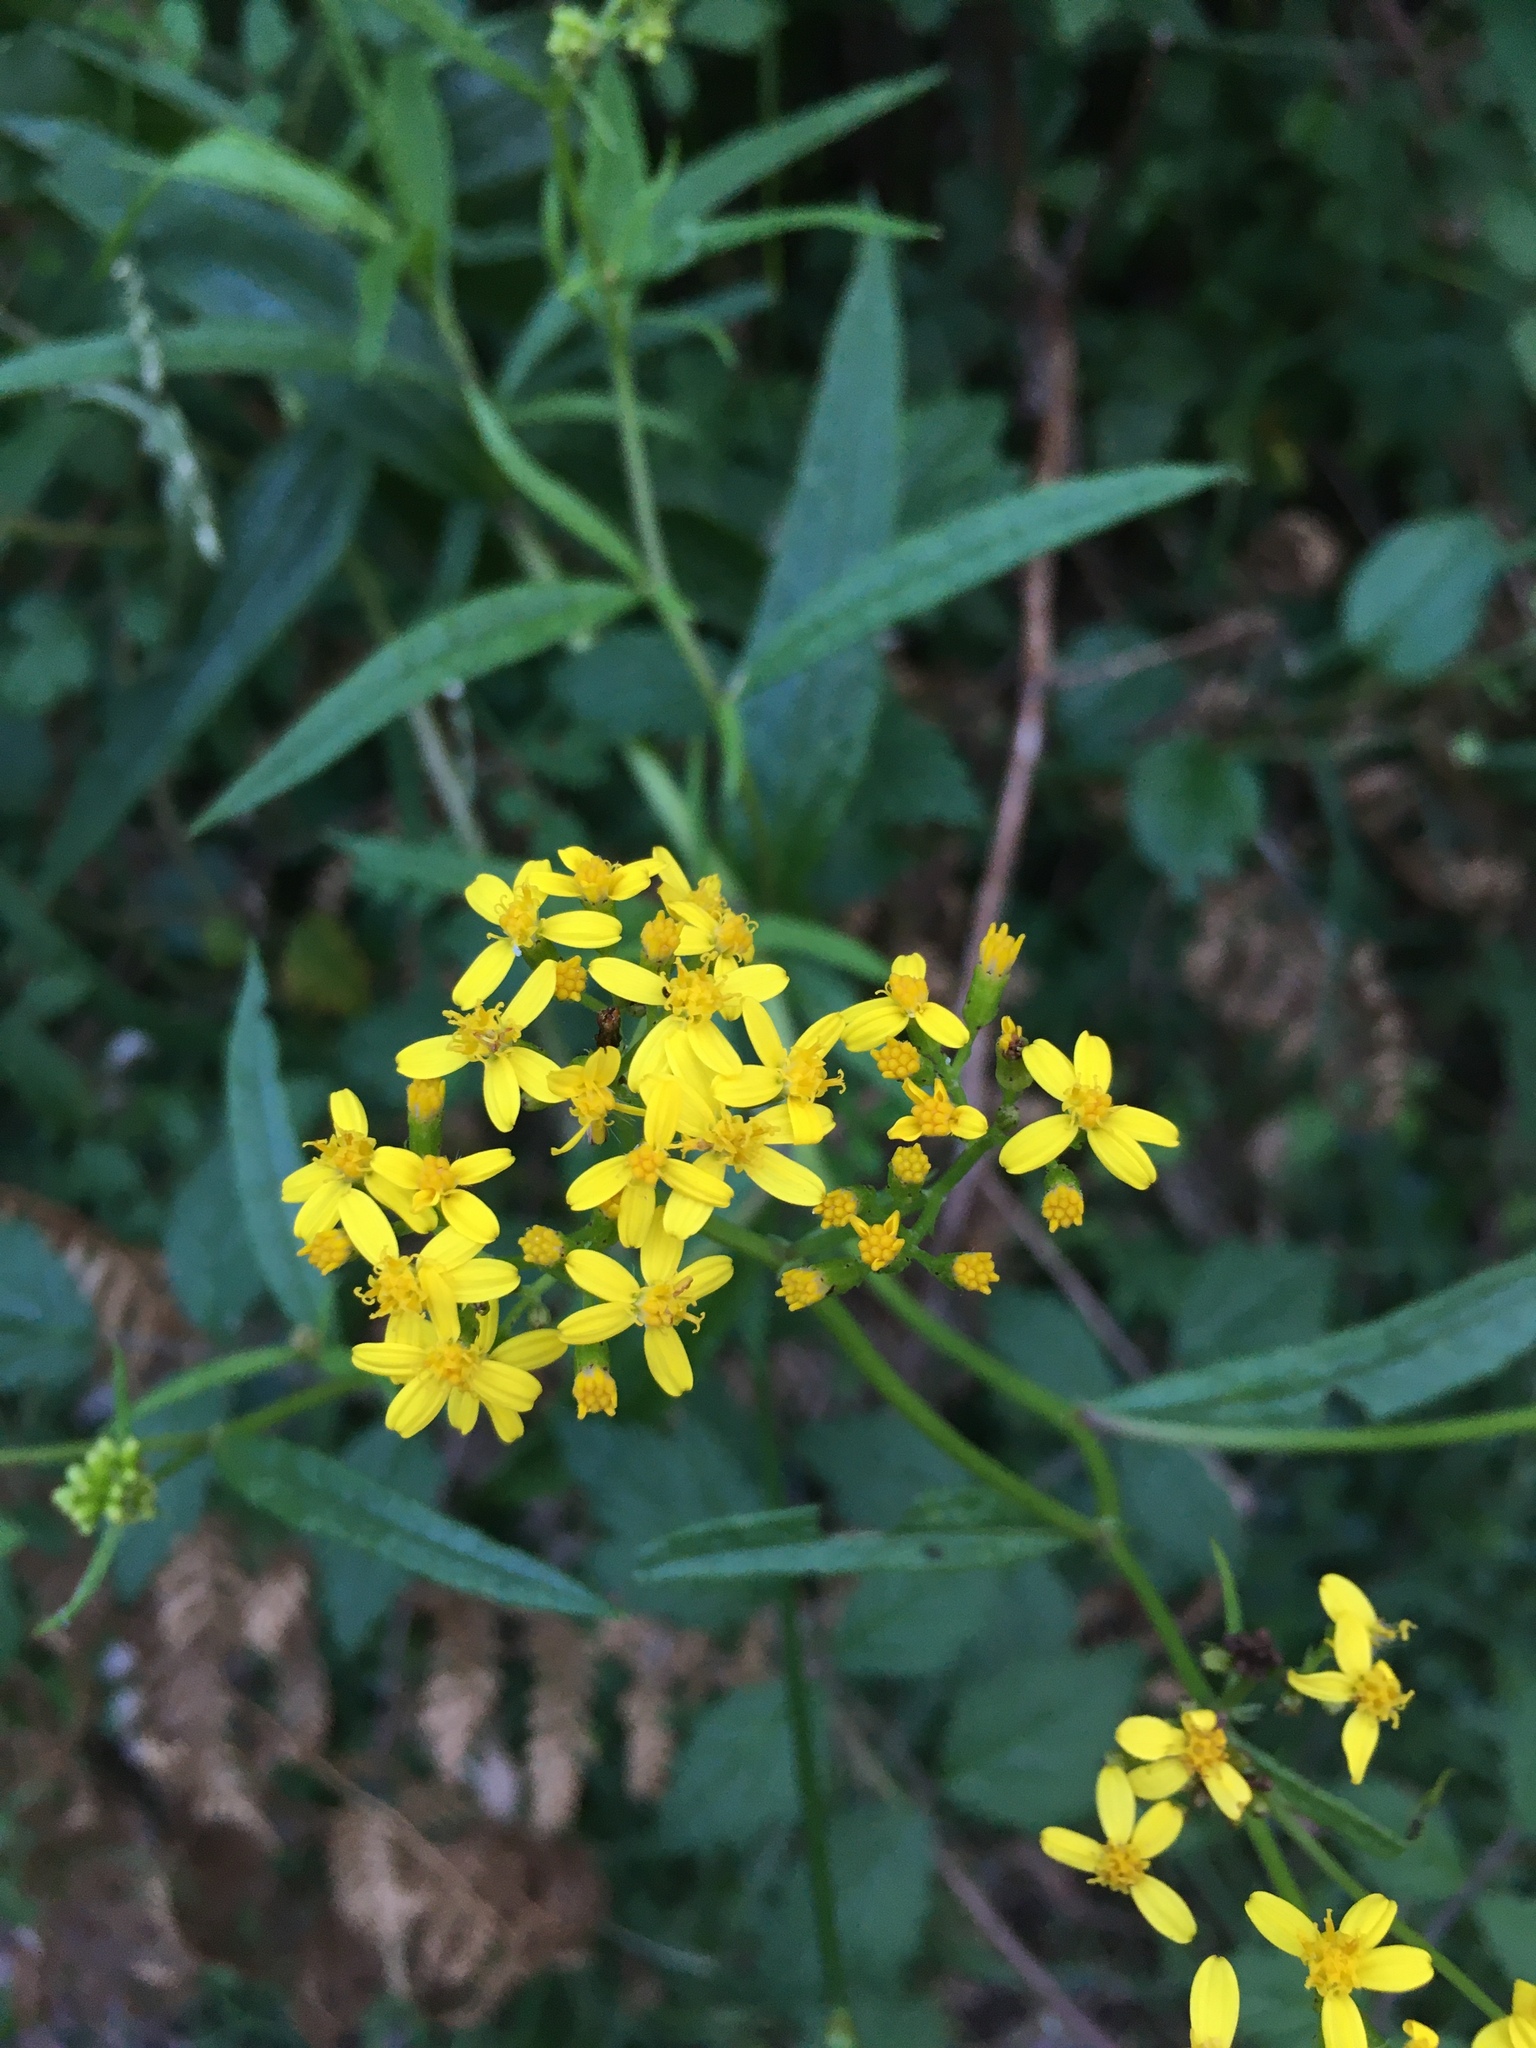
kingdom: Plantae
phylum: Tracheophyta
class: Magnoliopsida
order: Asterales
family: Asteraceae
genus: Senecio
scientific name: Senecio linearifolius
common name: Fireweed groundsel
